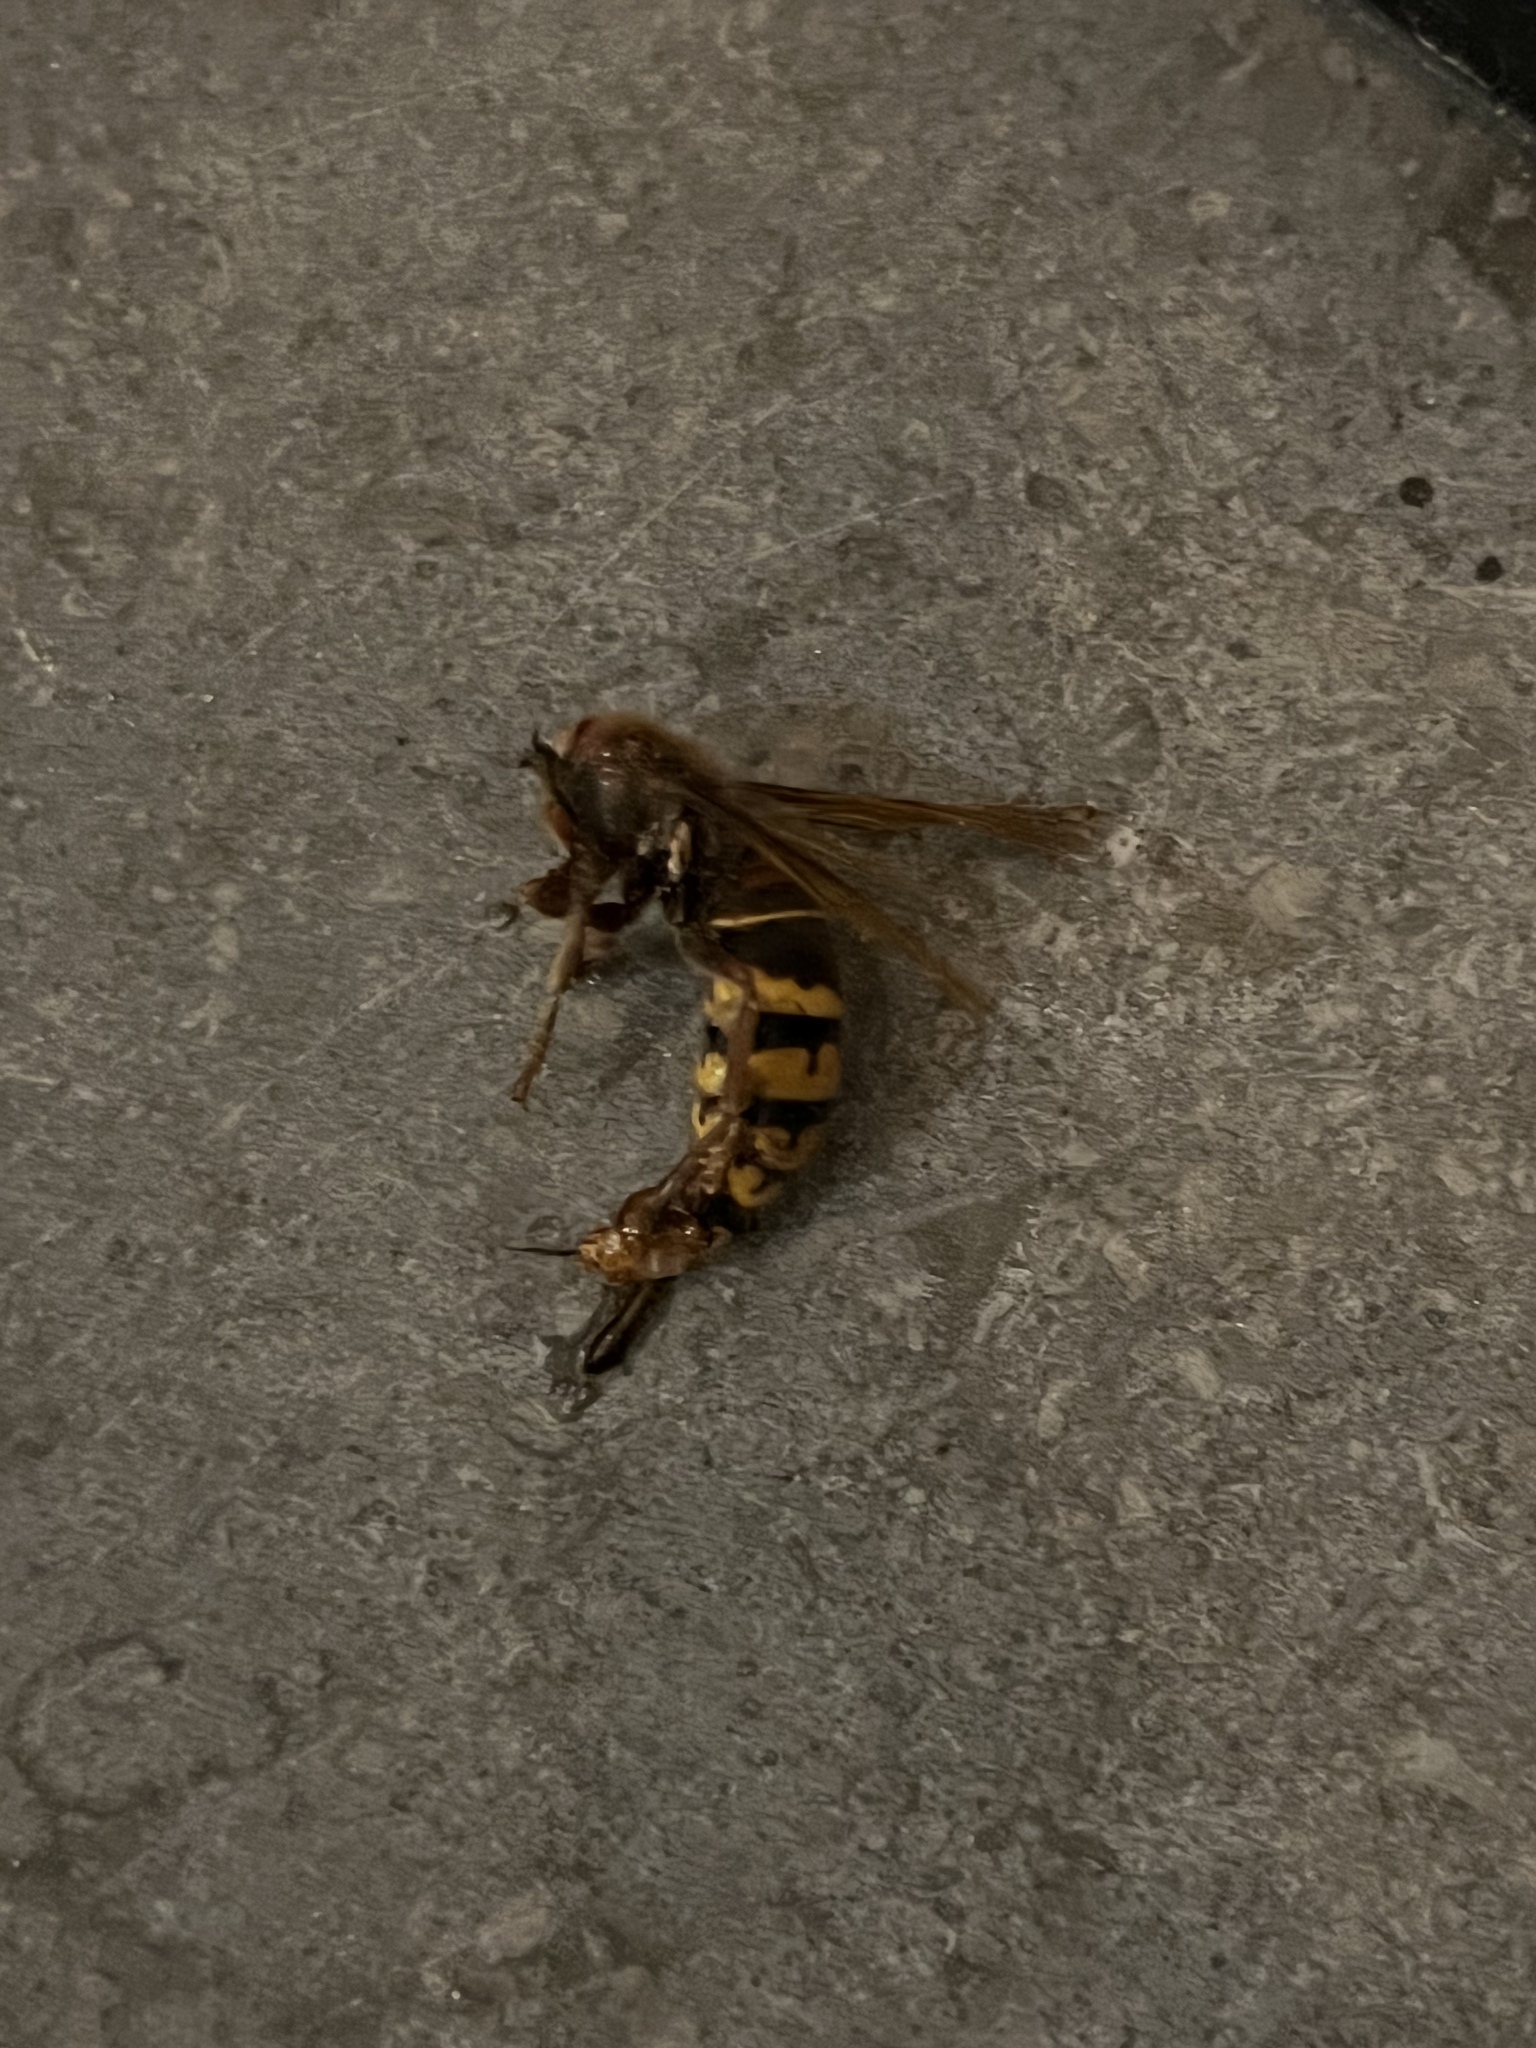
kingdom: Animalia
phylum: Arthropoda
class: Insecta
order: Hymenoptera
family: Vespidae
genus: Vespa
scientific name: Vespa crabro
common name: Hornet
